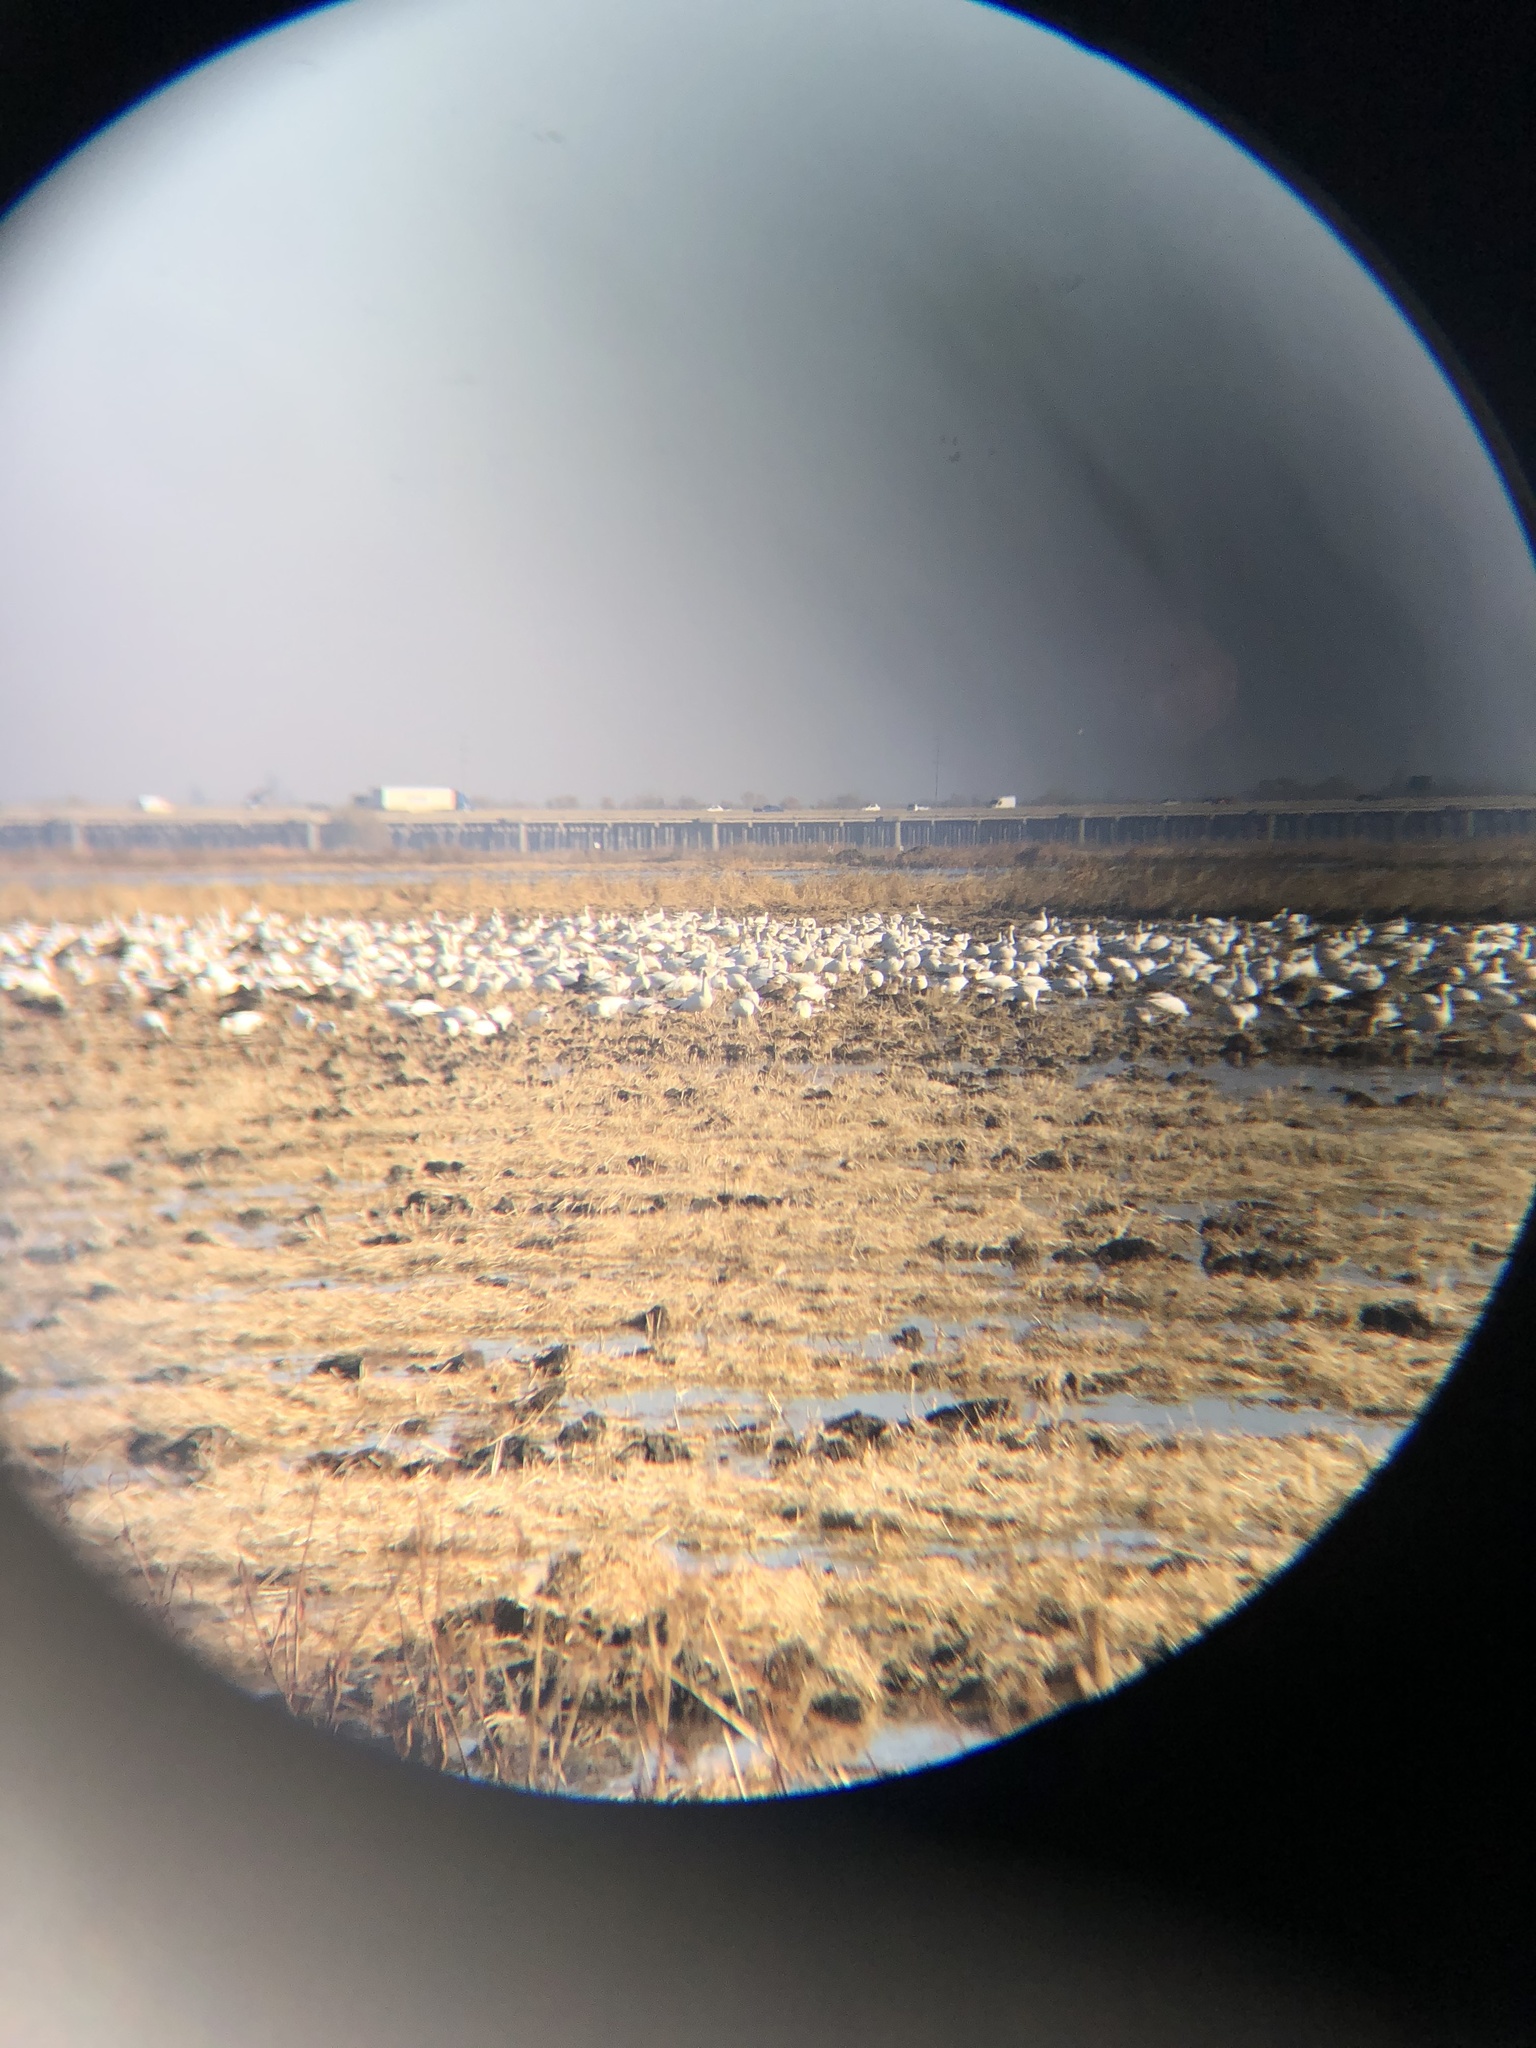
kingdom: Animalia
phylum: Chordata
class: Aves
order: Anseriformes
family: Anatidae
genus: Anser
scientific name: Anser caerulescens
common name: Snow goose
